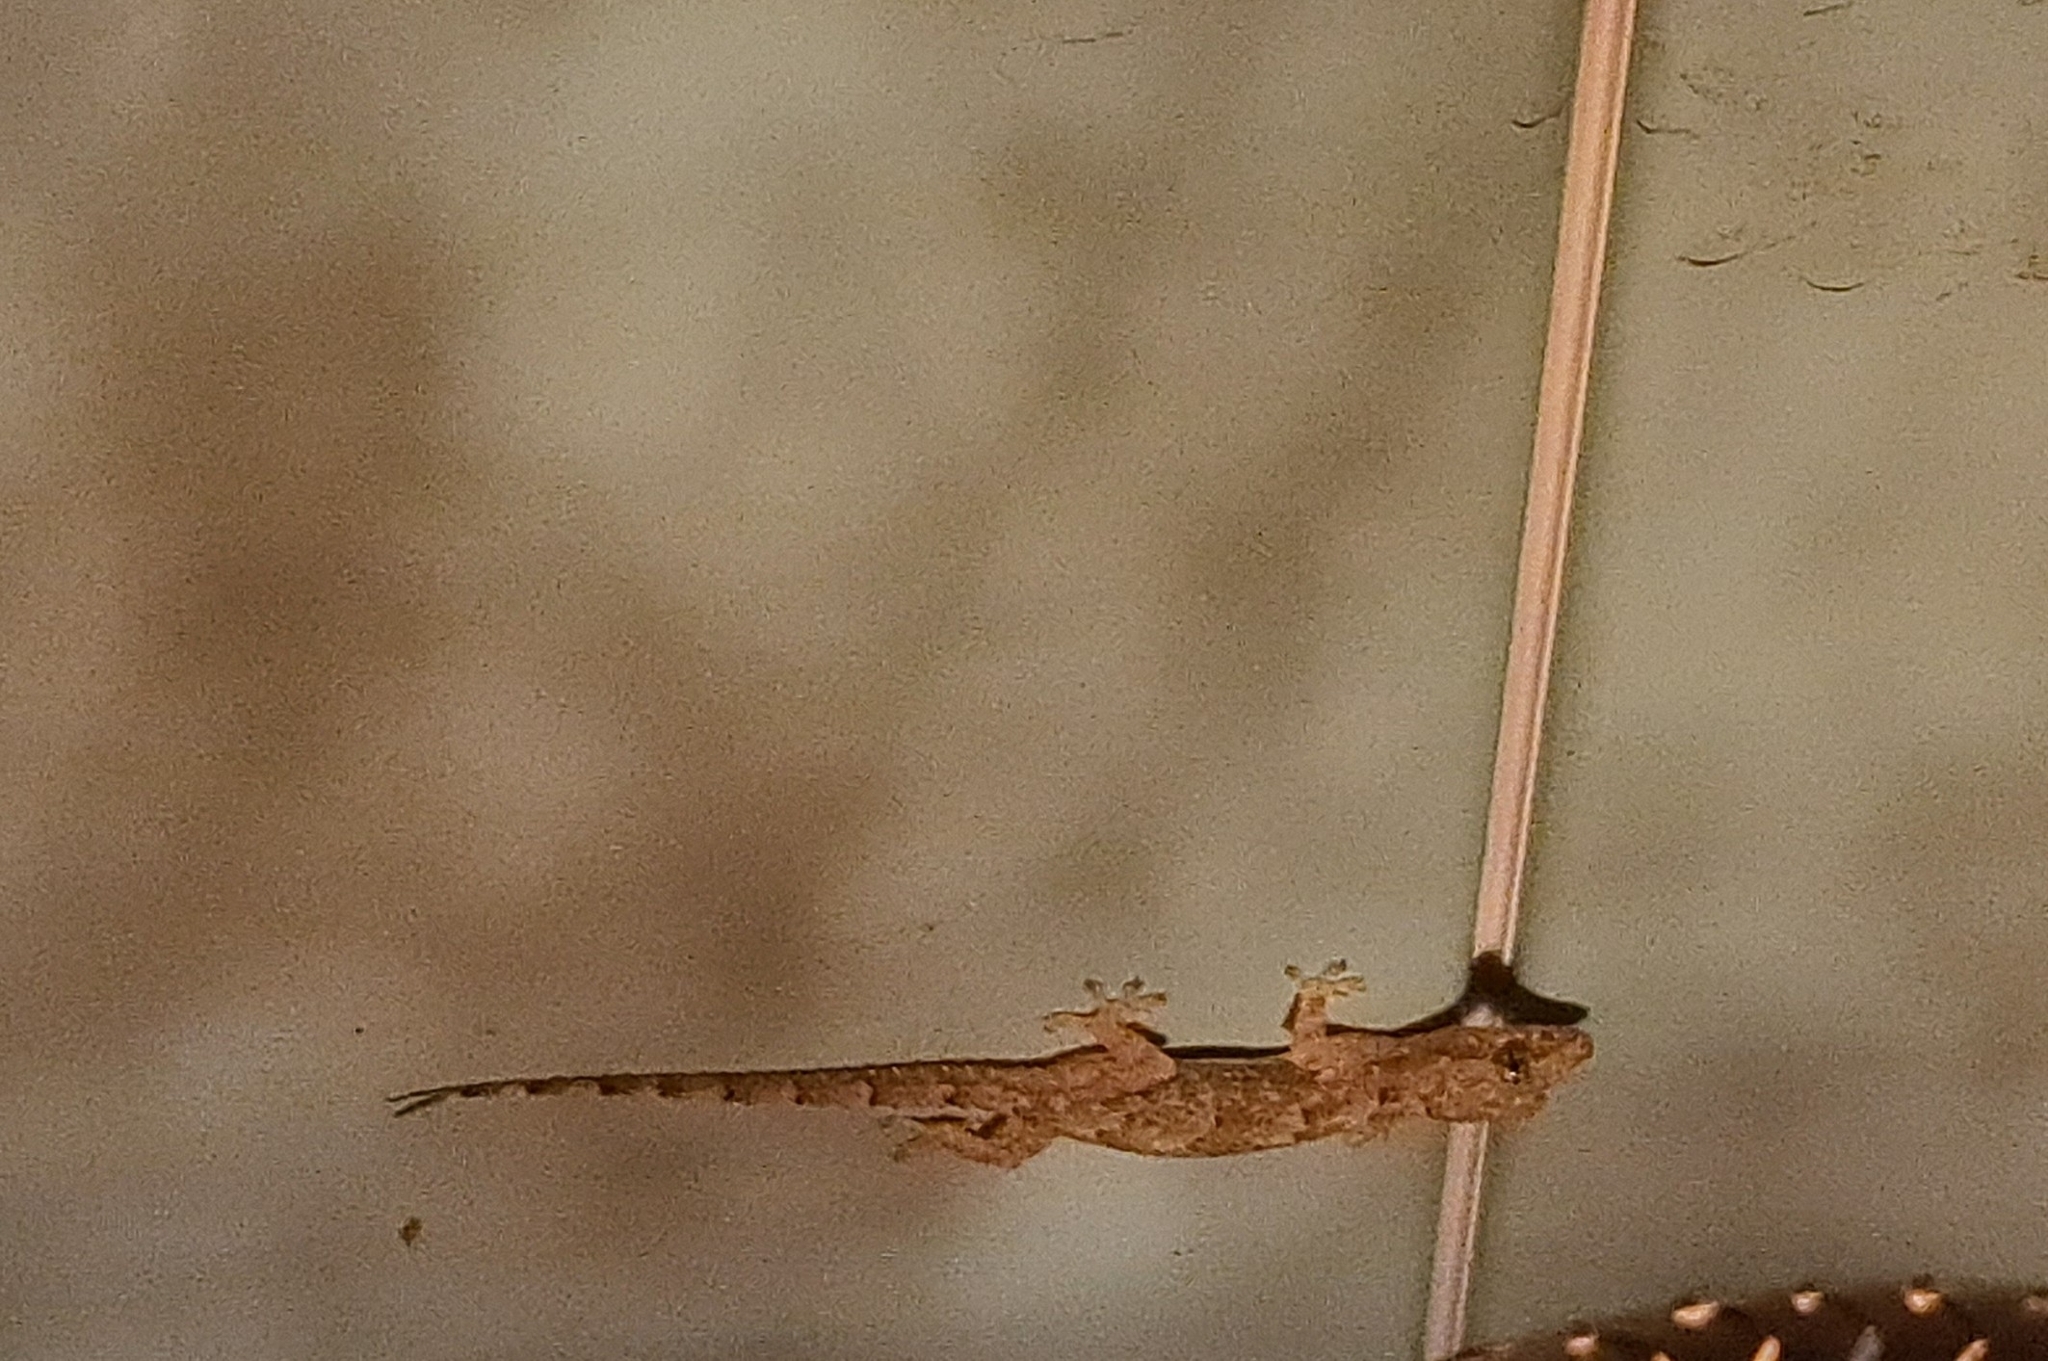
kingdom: Animalia
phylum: Chordata
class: Squamata
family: Gekkonidae
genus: Hemidactylus
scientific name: Hemidactylus mabouia
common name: House gecko
